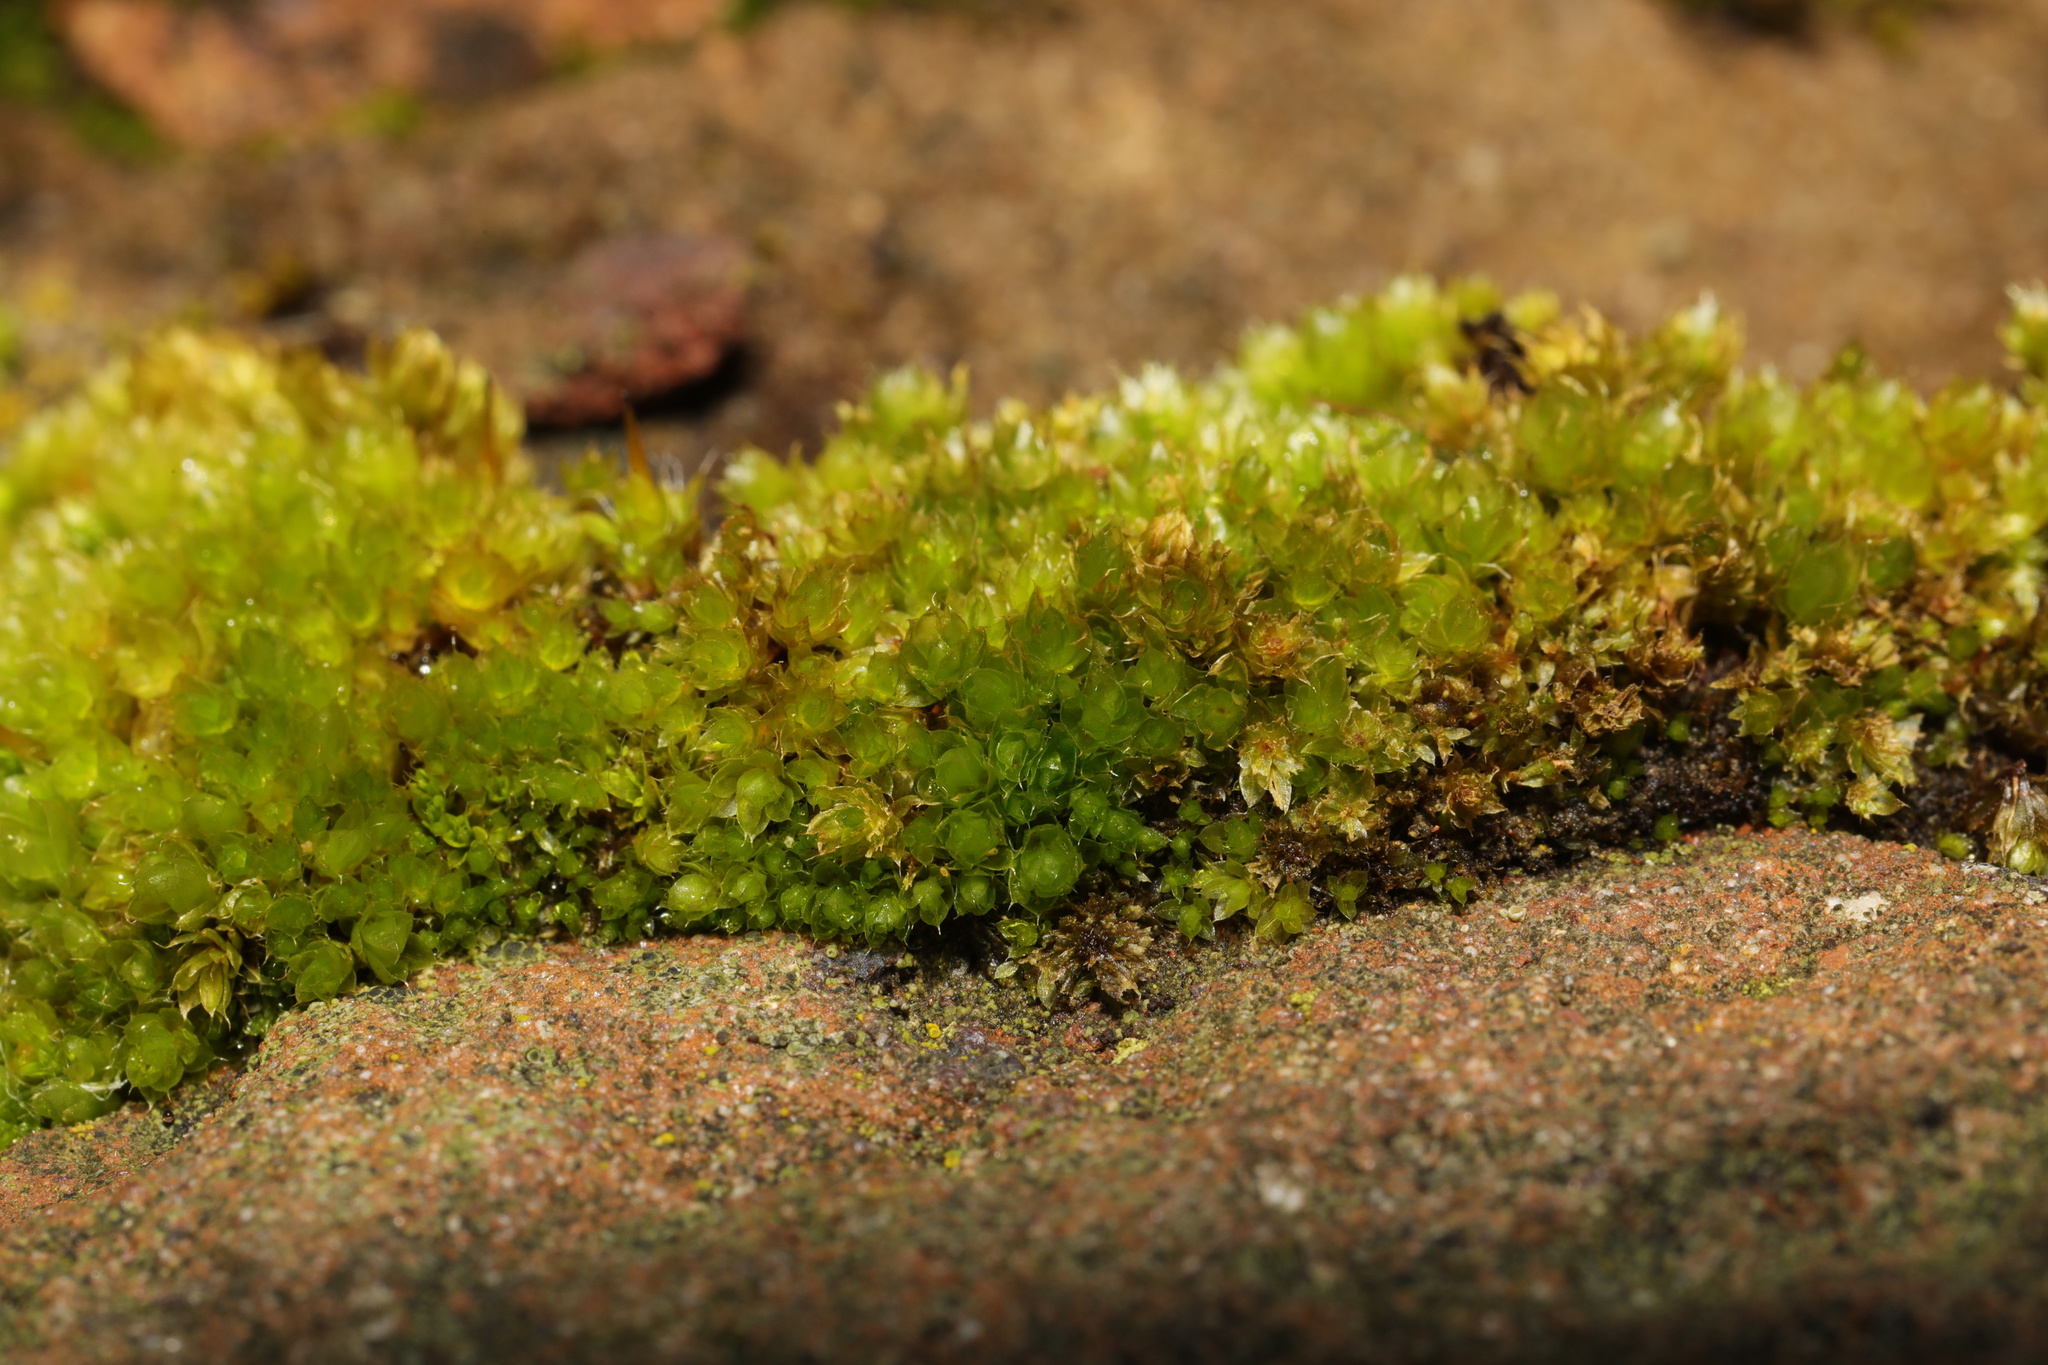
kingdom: Plantae
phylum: Bryophyta
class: Bryopsida
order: Bryales
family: Bryaceae
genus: Rosulabryum
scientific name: Rosulabryum capillare
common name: Capillary thread-moss
